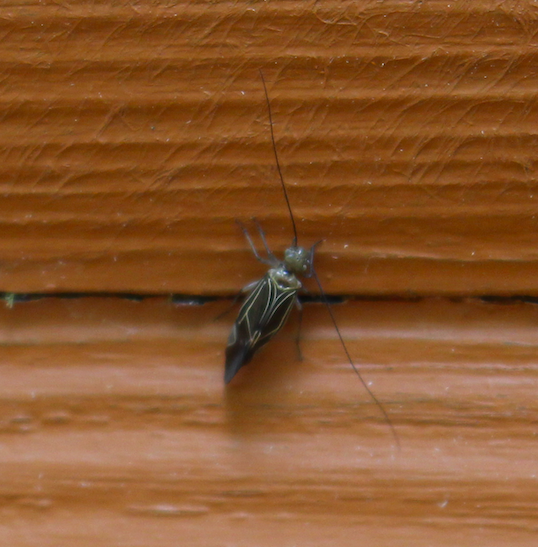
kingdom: Animalia
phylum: Arthropoda
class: Insecta
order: Psocodea
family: Psocidae
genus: Cerastipsocus
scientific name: Cerastipsocus venosus
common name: Tree cattle
